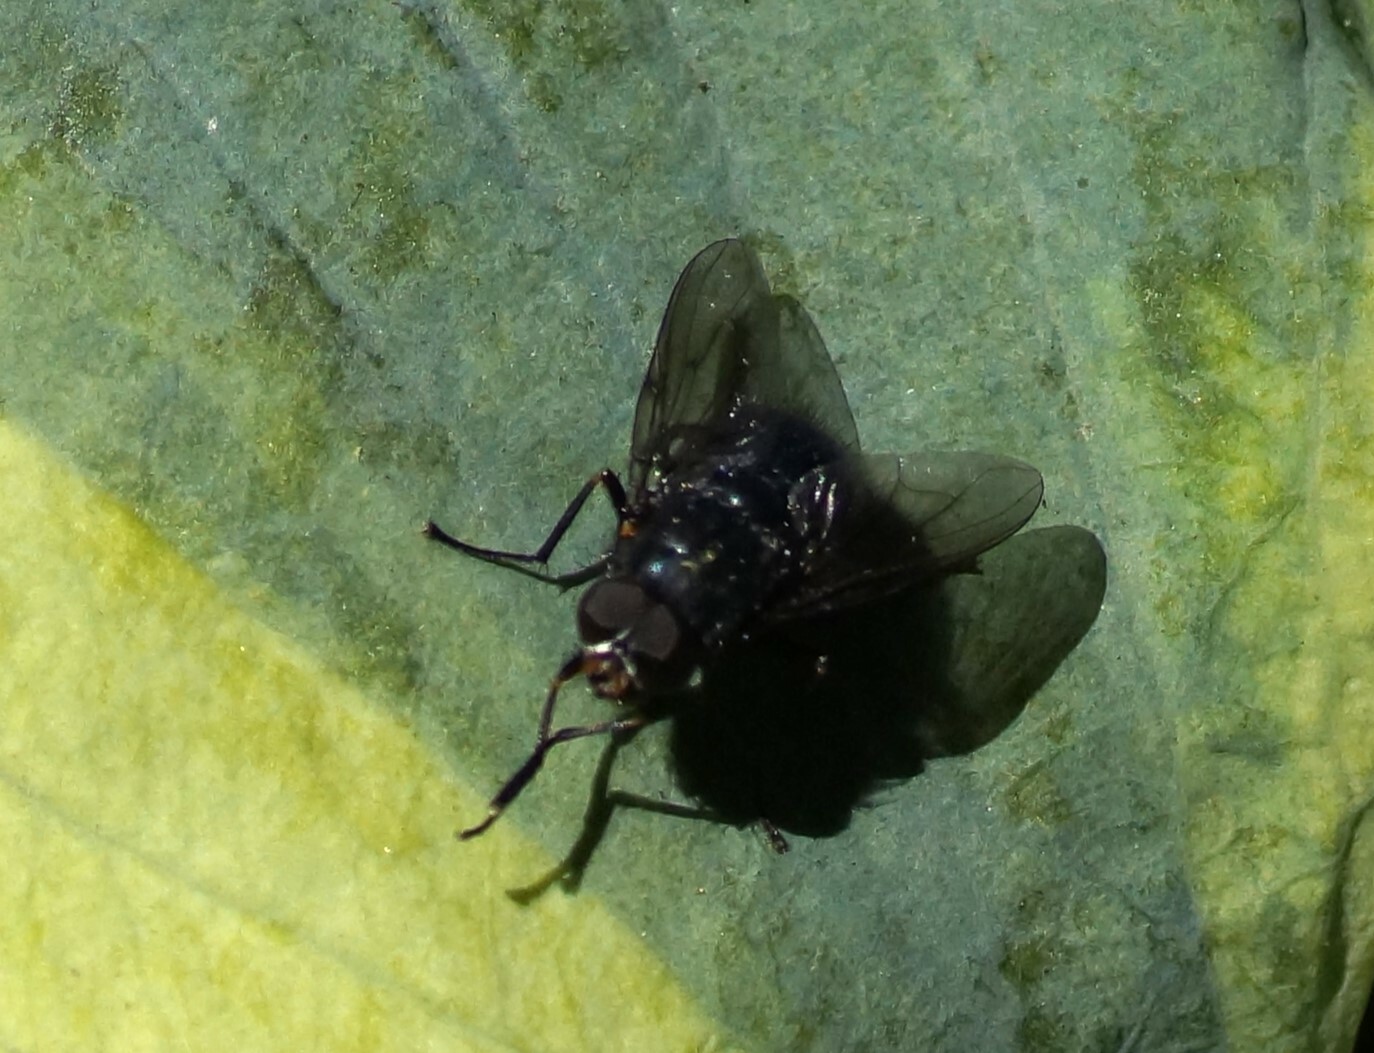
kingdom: Animalia
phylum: Arthropoda
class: Insecta
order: Diptera
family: Muscidae
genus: Calliphoroides
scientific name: Calliphoroides antennatis
